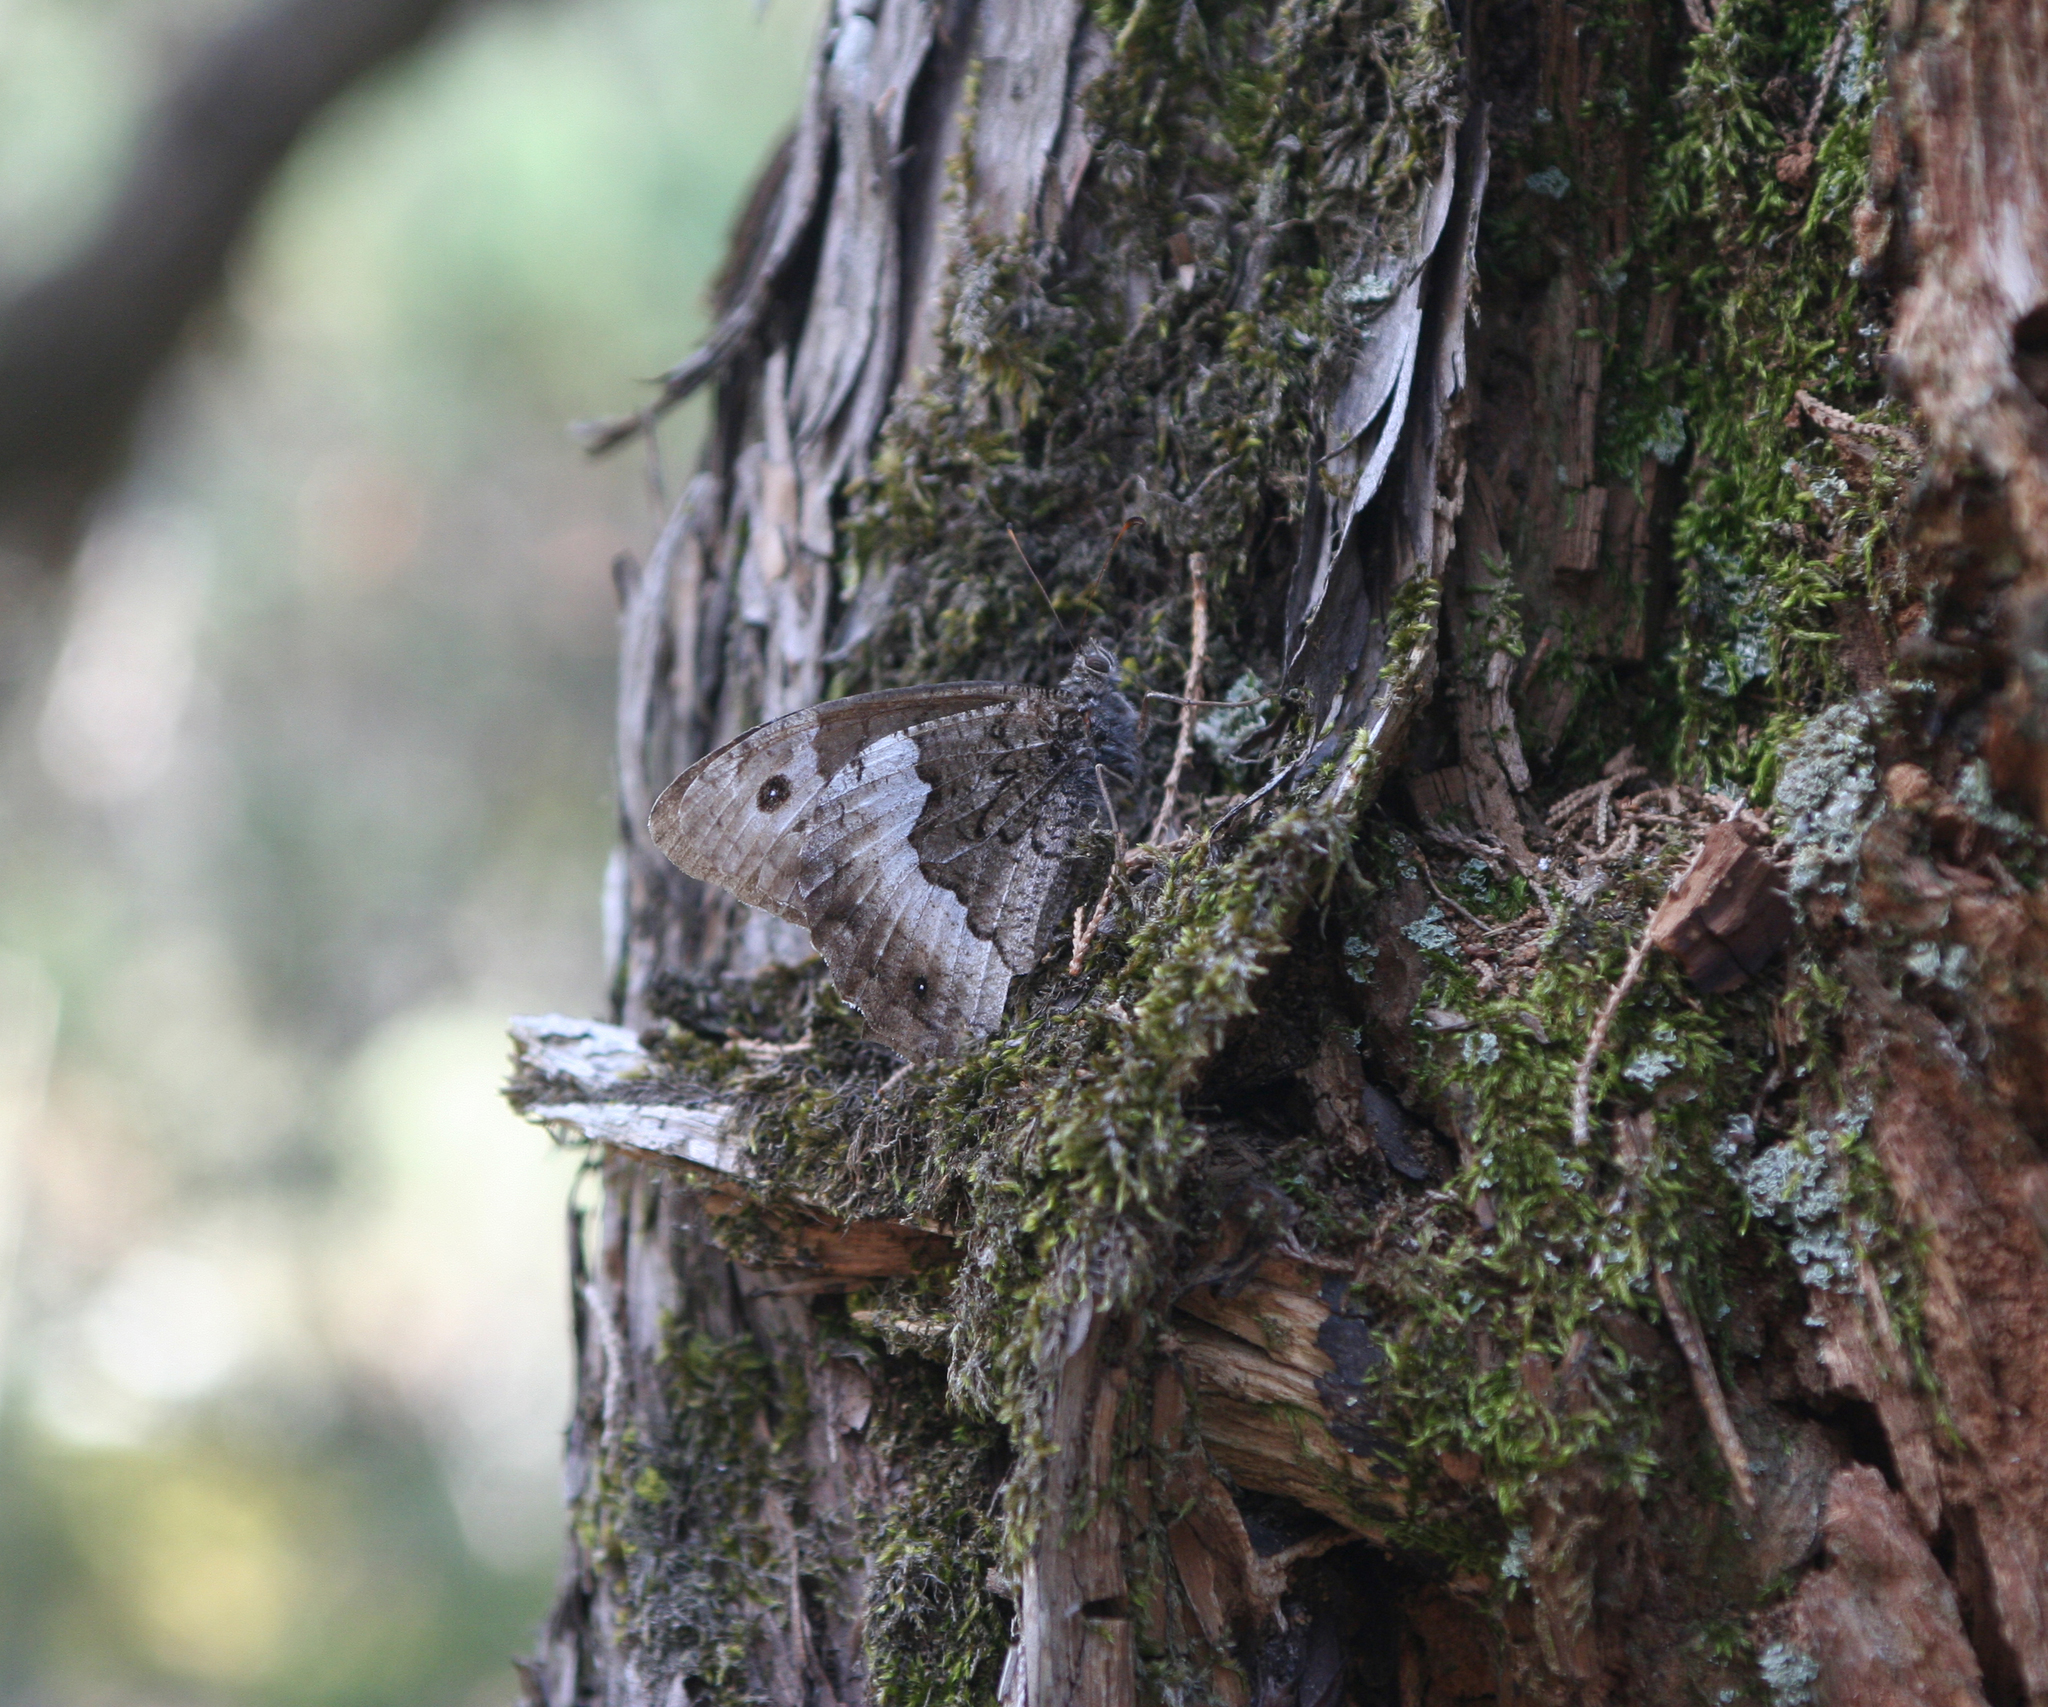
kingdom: Animalia
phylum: Arthropoda
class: Insecta
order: Lepidoptera
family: Nymphalidae
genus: Hipparchia
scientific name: Hipparchia fagi
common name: Woodland grayling
